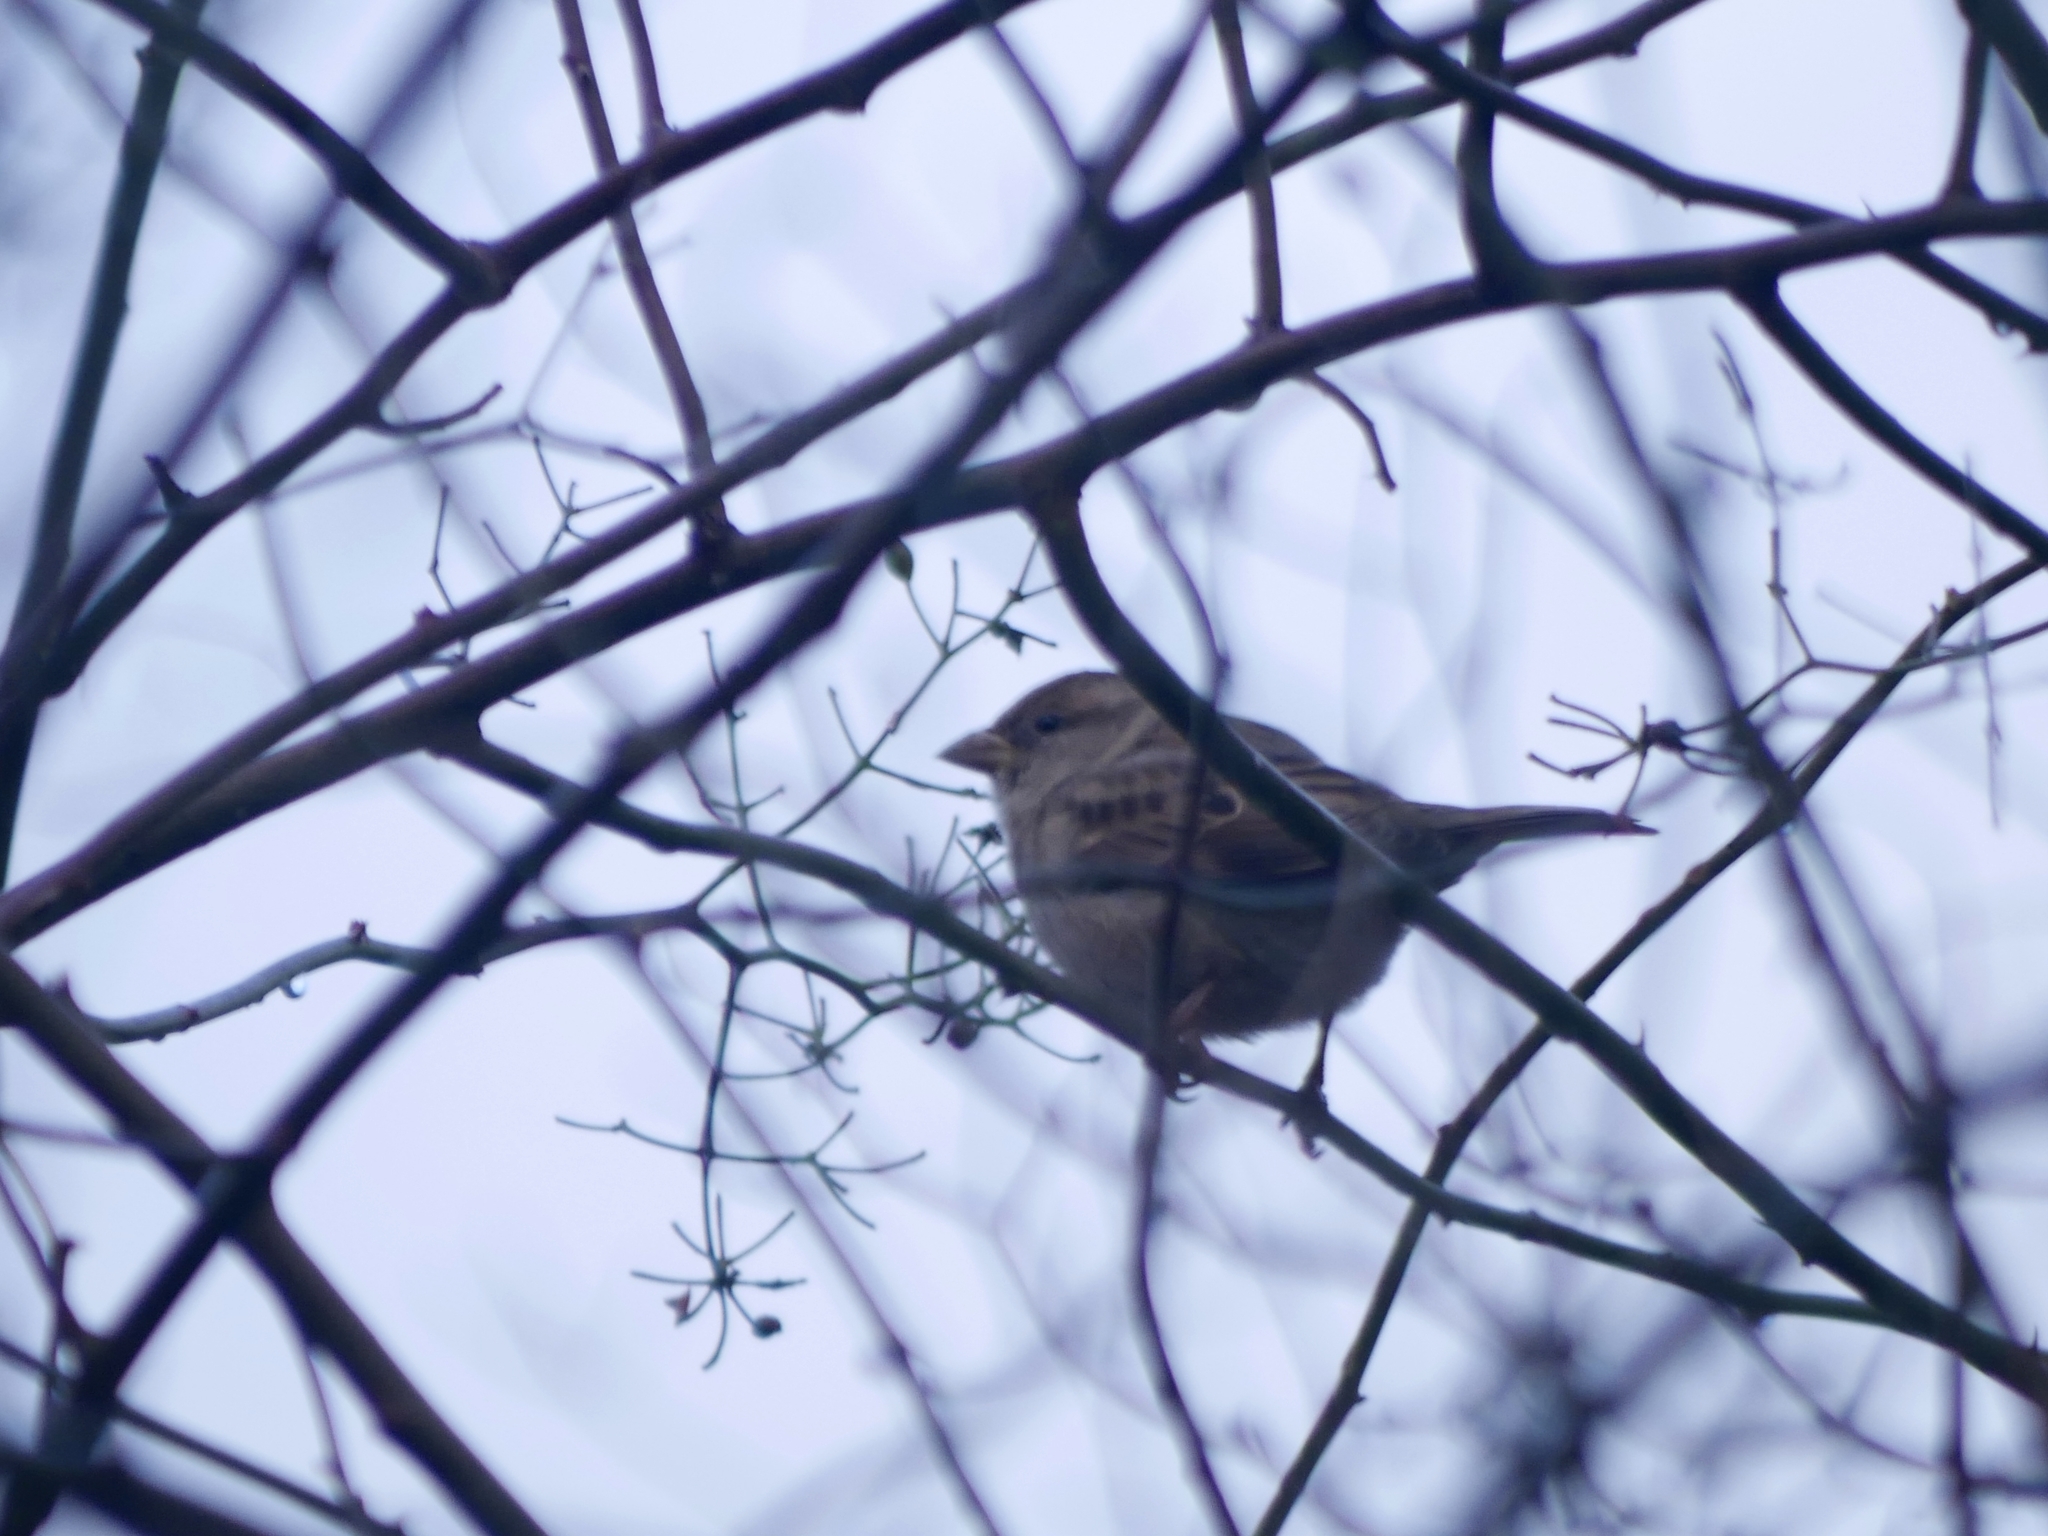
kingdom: Animalia
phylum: Chordata
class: Aves
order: Passeriformes
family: Passeridae
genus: Passer
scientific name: Passer domesticus
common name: House sparrow
